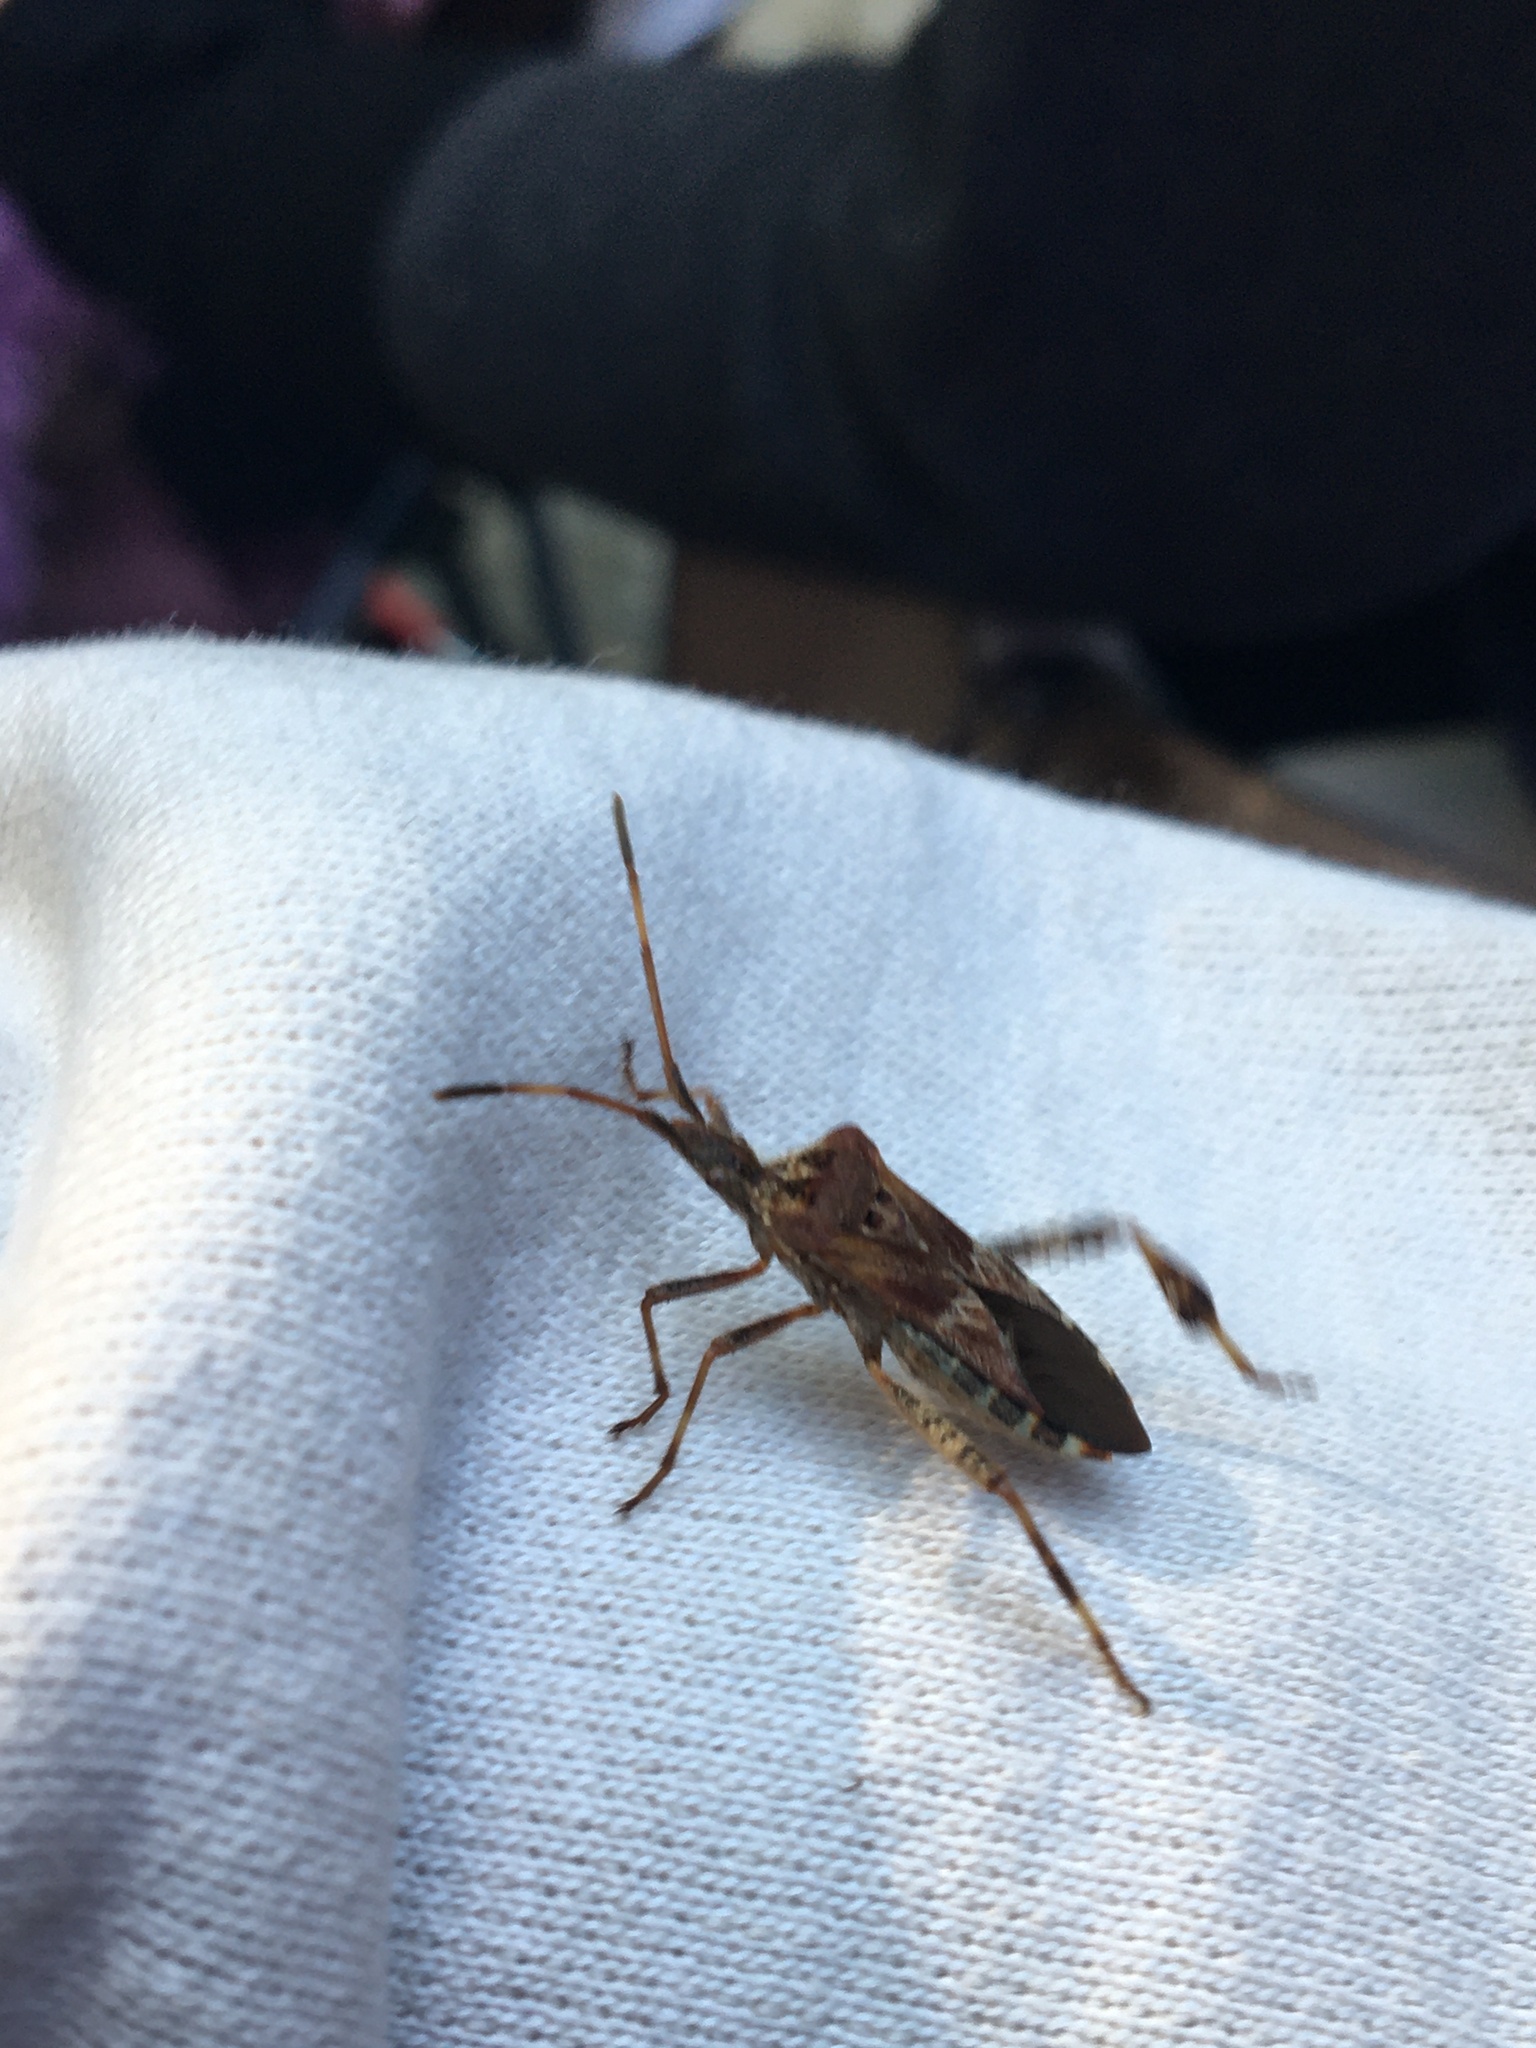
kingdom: Animalia
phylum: Arthropoda
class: Insecta
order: Hemiptera
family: Coreidae
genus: Leptoglossus
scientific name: Leptoglossus occidentalis
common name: Western conifer-seed bug
